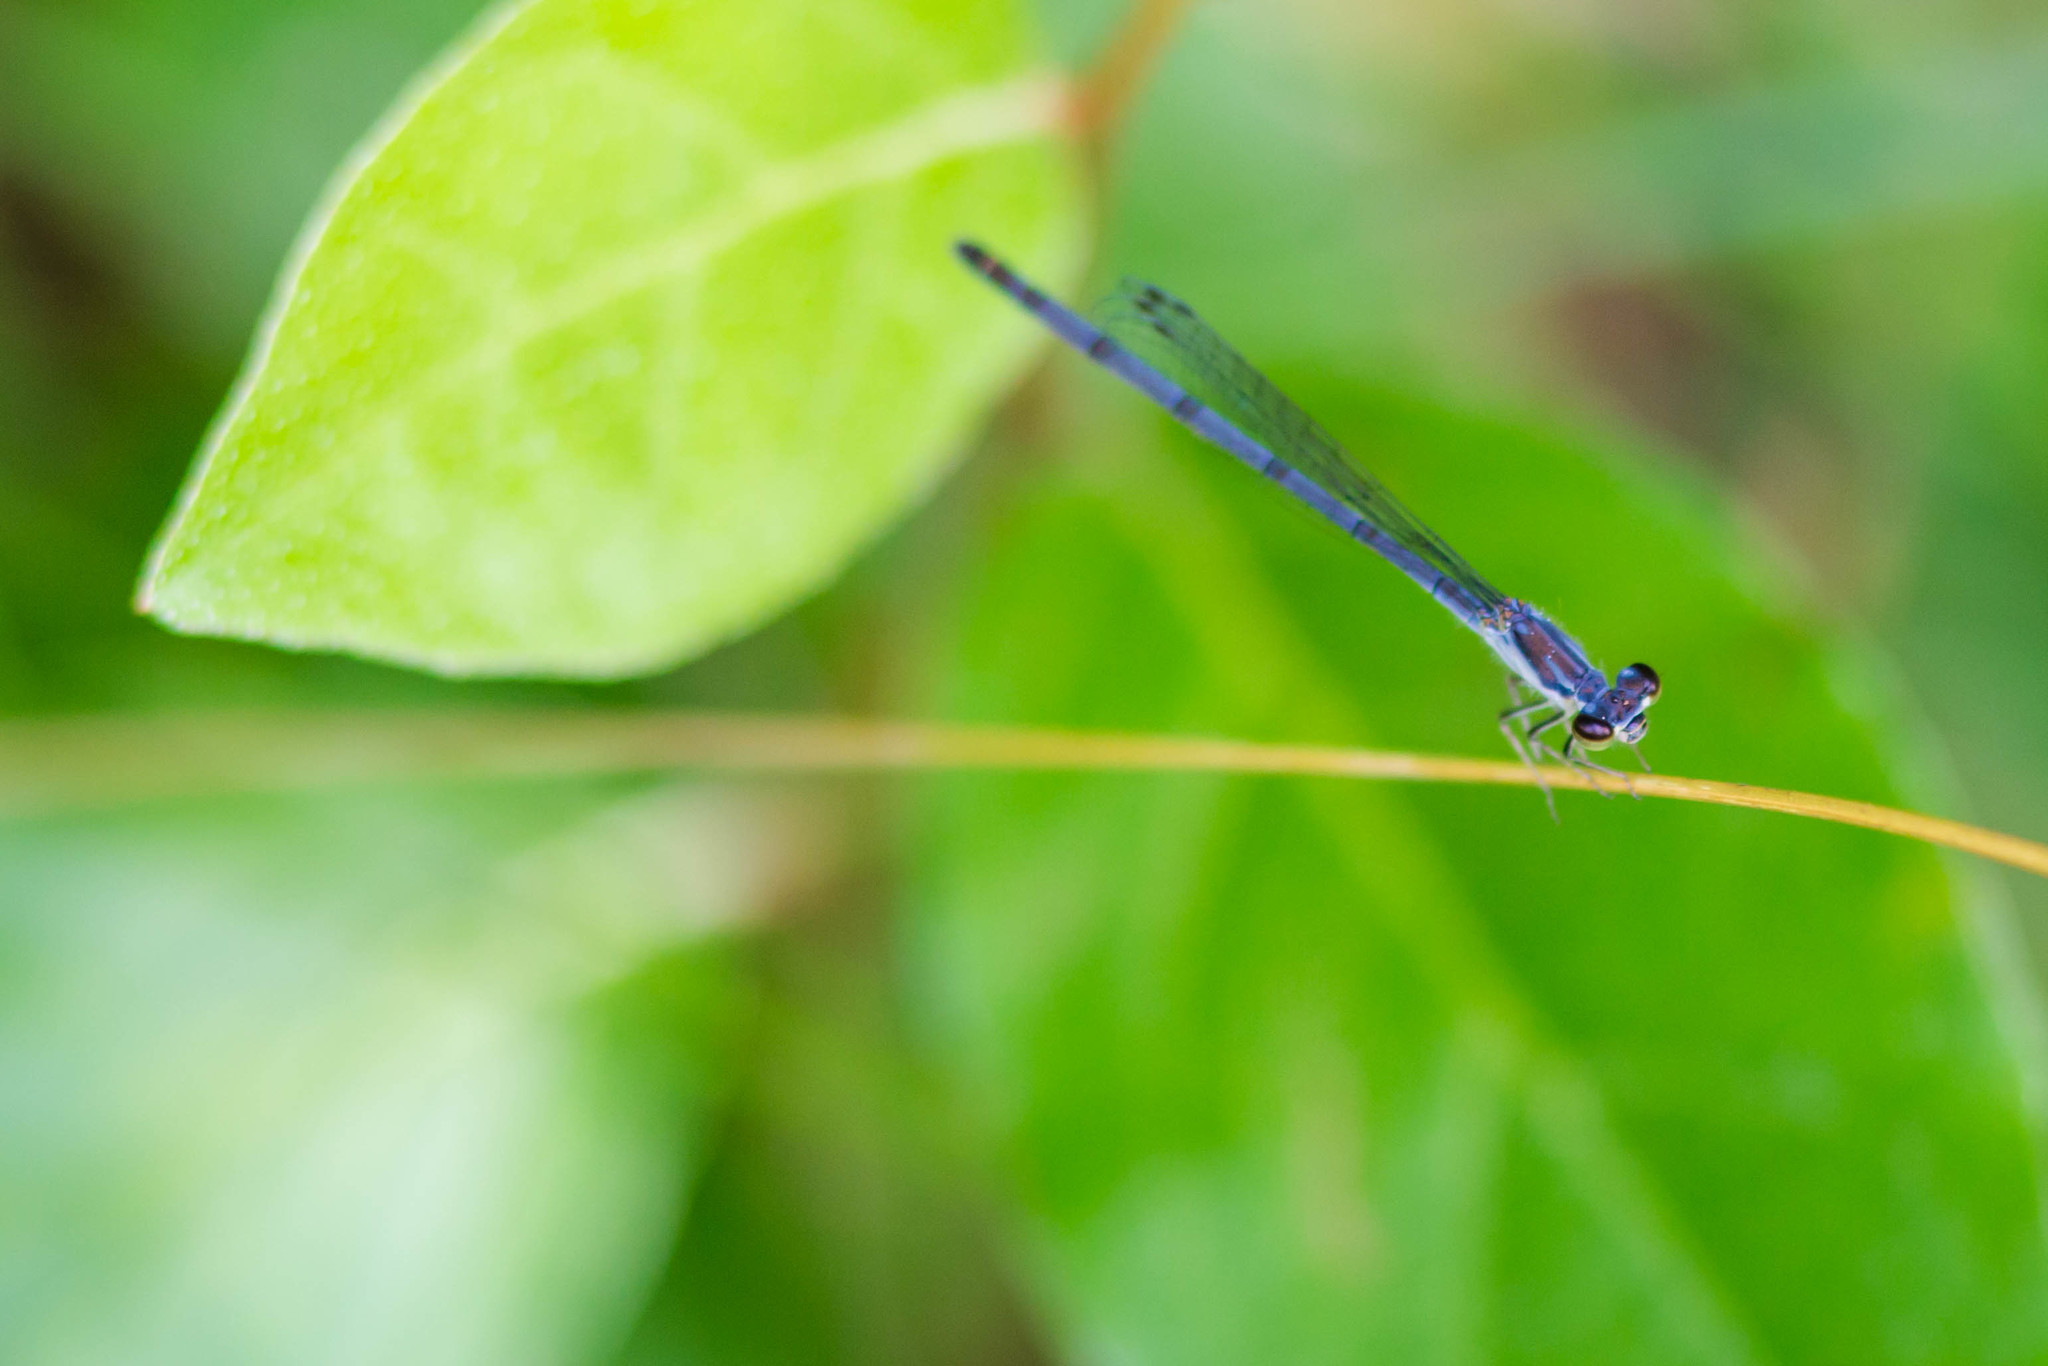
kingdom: Animalia
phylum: Arthropoda
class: Insecta
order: Odonata
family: Coenagrionidae
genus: Ischnura
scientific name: Ischnura posita
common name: Fragile forktail
